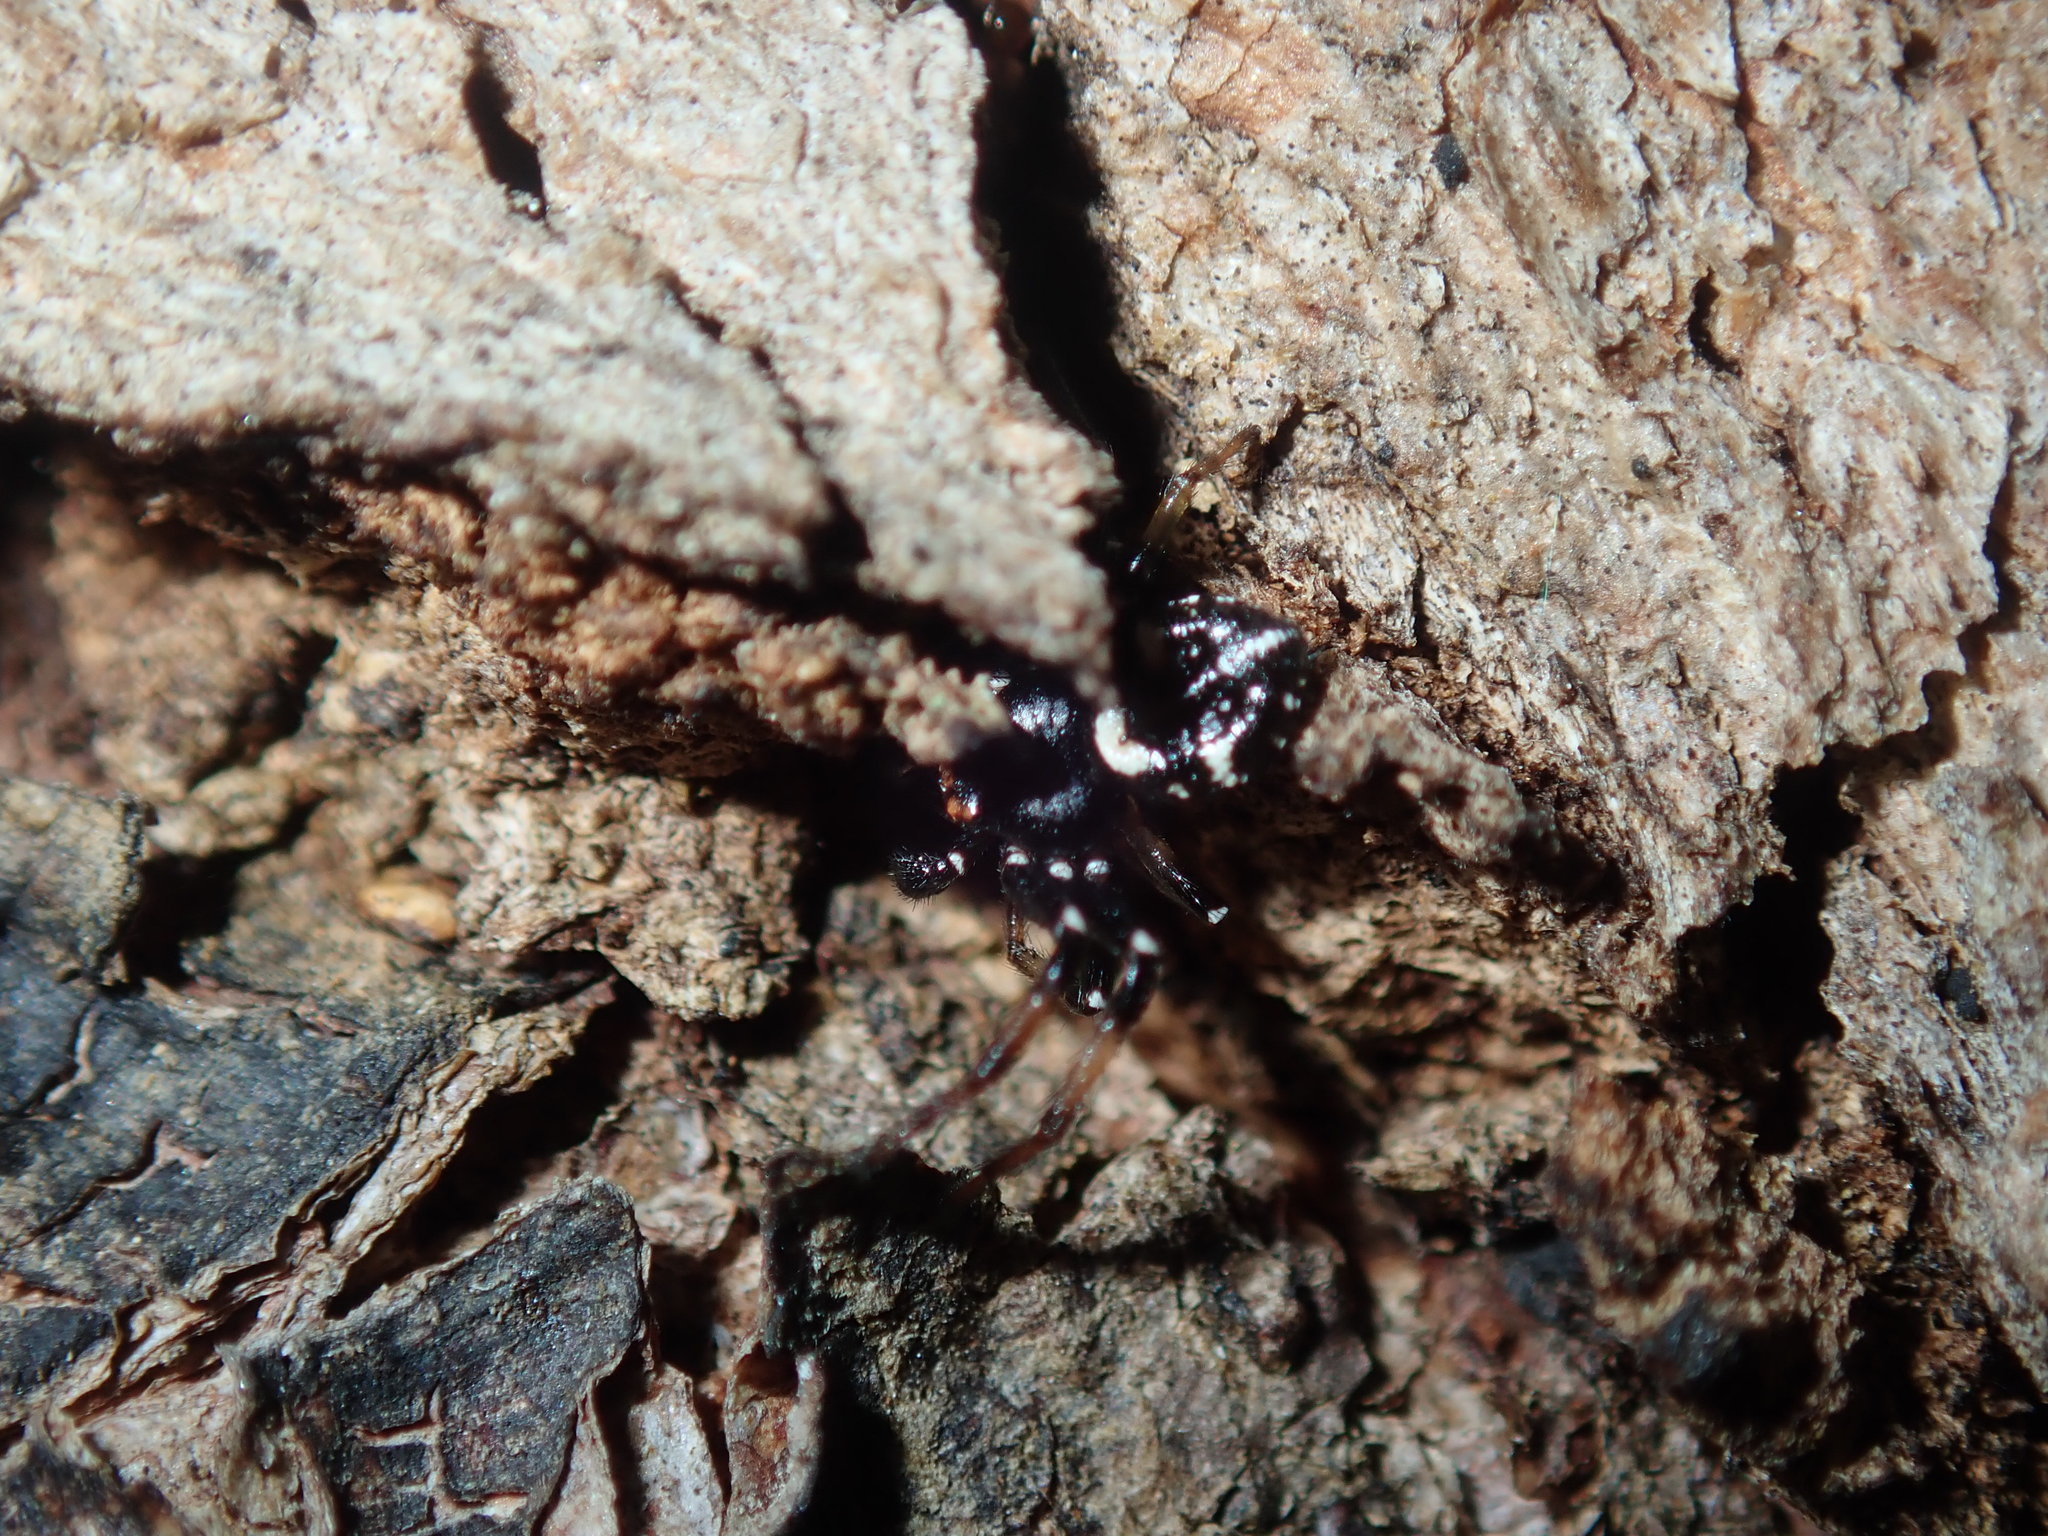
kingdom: Animalia
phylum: Arthropoda
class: Arachnida
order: Araneae
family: Thomisidae
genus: Tharpyna
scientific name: Tharpyna decorata
